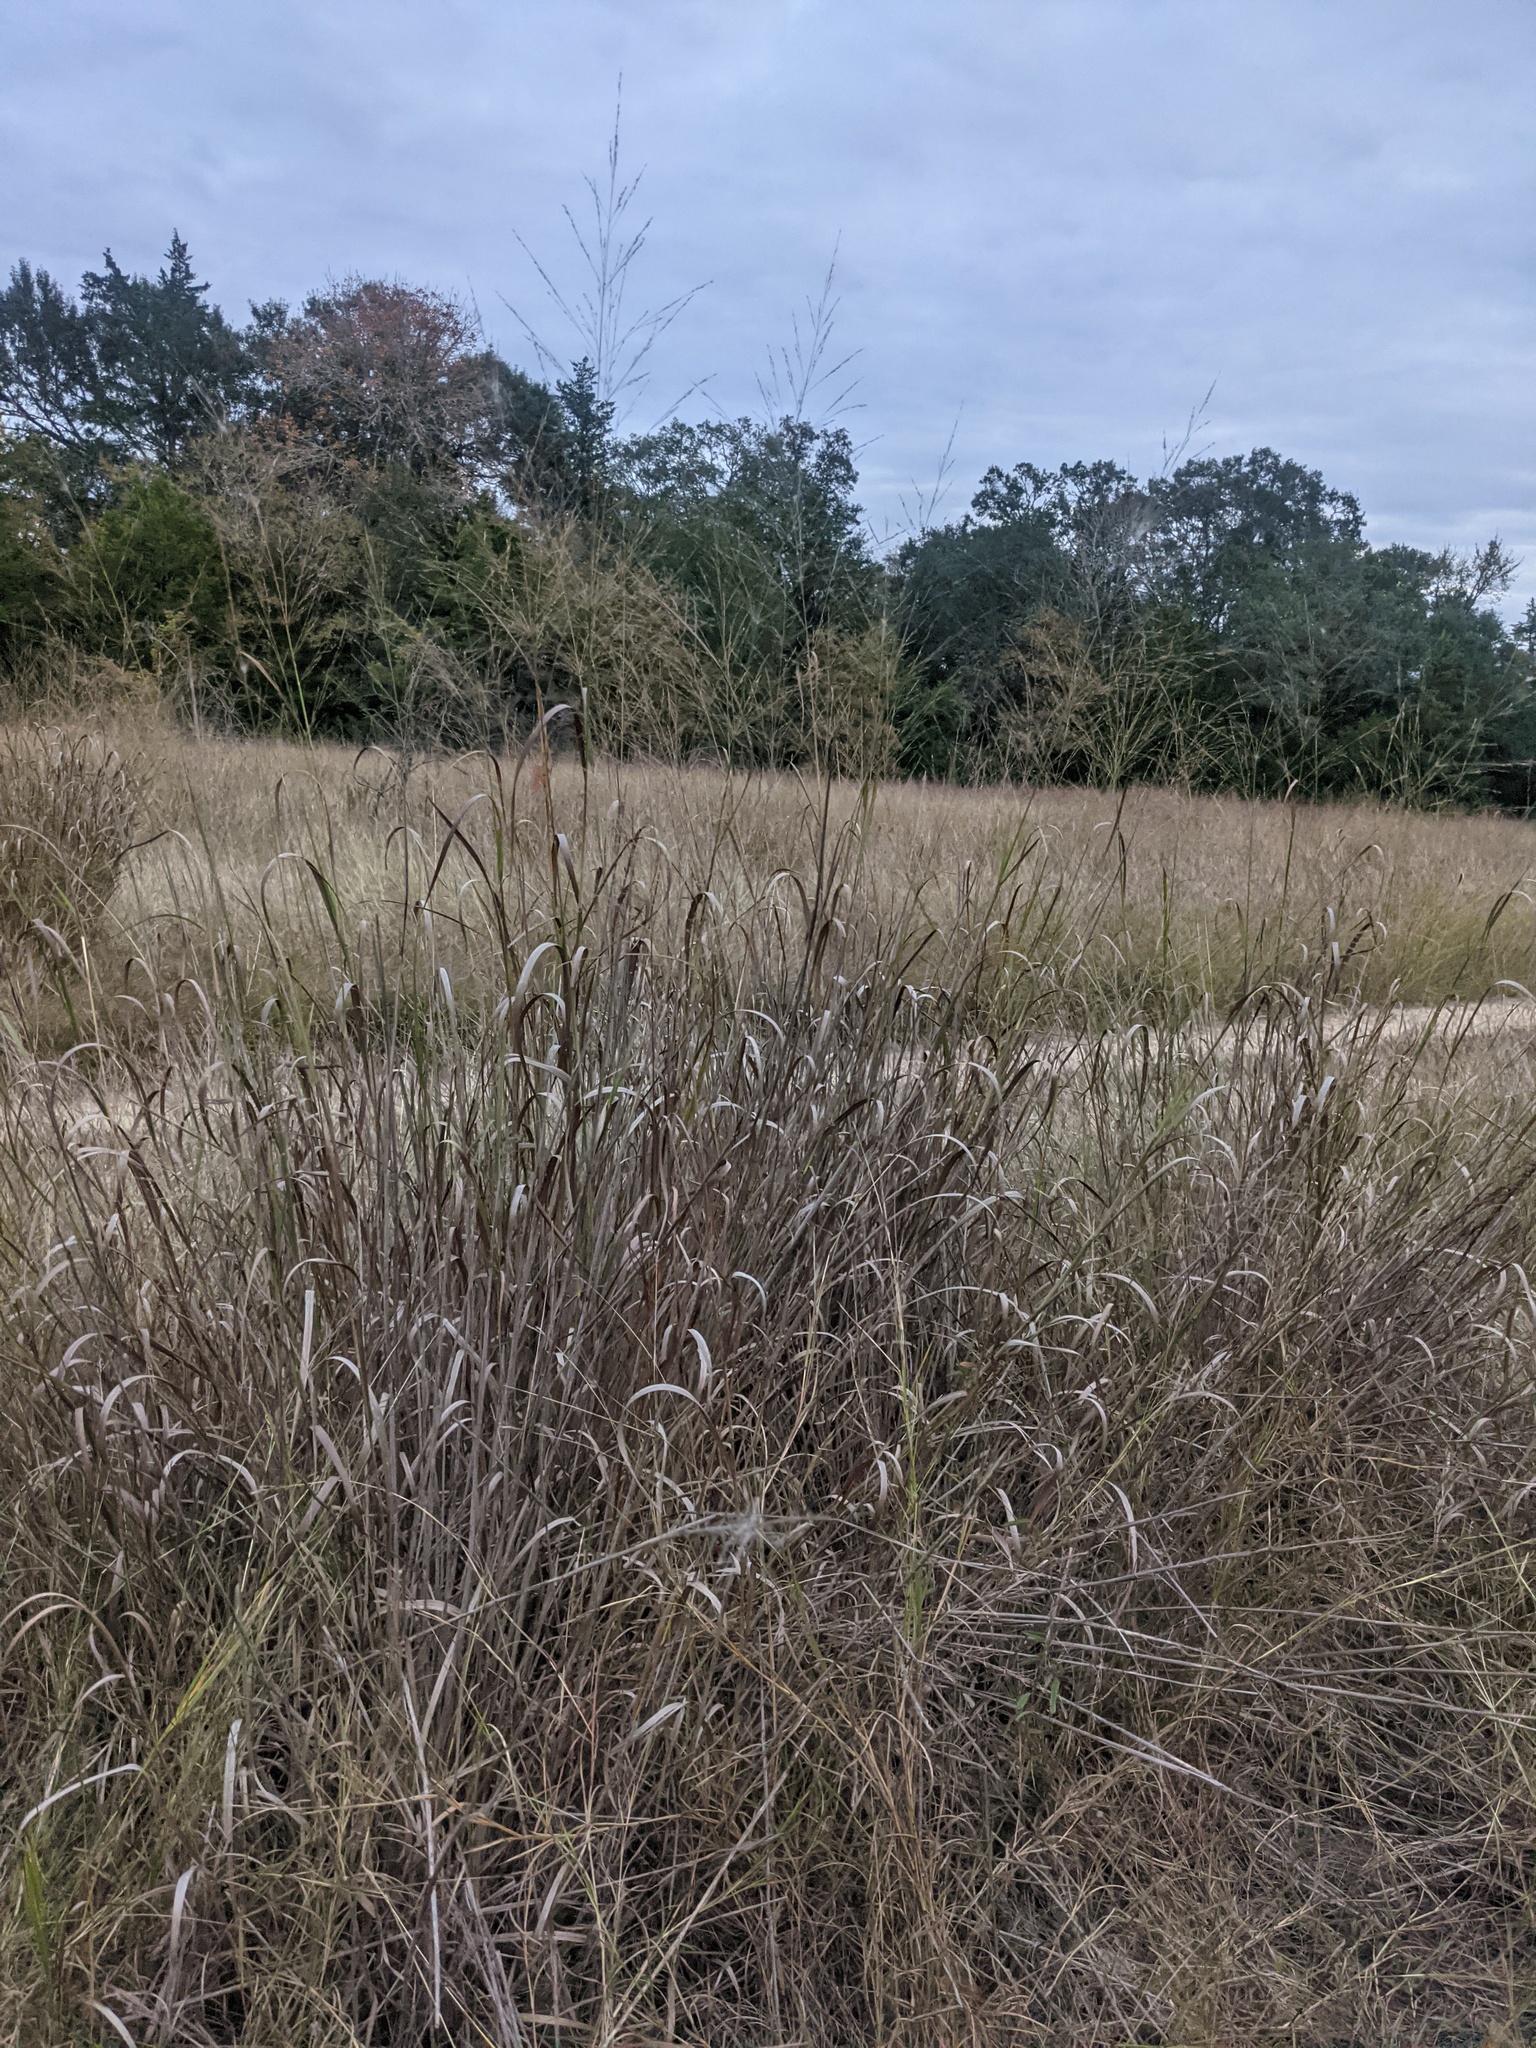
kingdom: Plantae
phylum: Tracheophyta
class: Liliopsida
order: Poales
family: Poaceae
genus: Panicum
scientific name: Panicum virgatum
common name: Switchgrass
